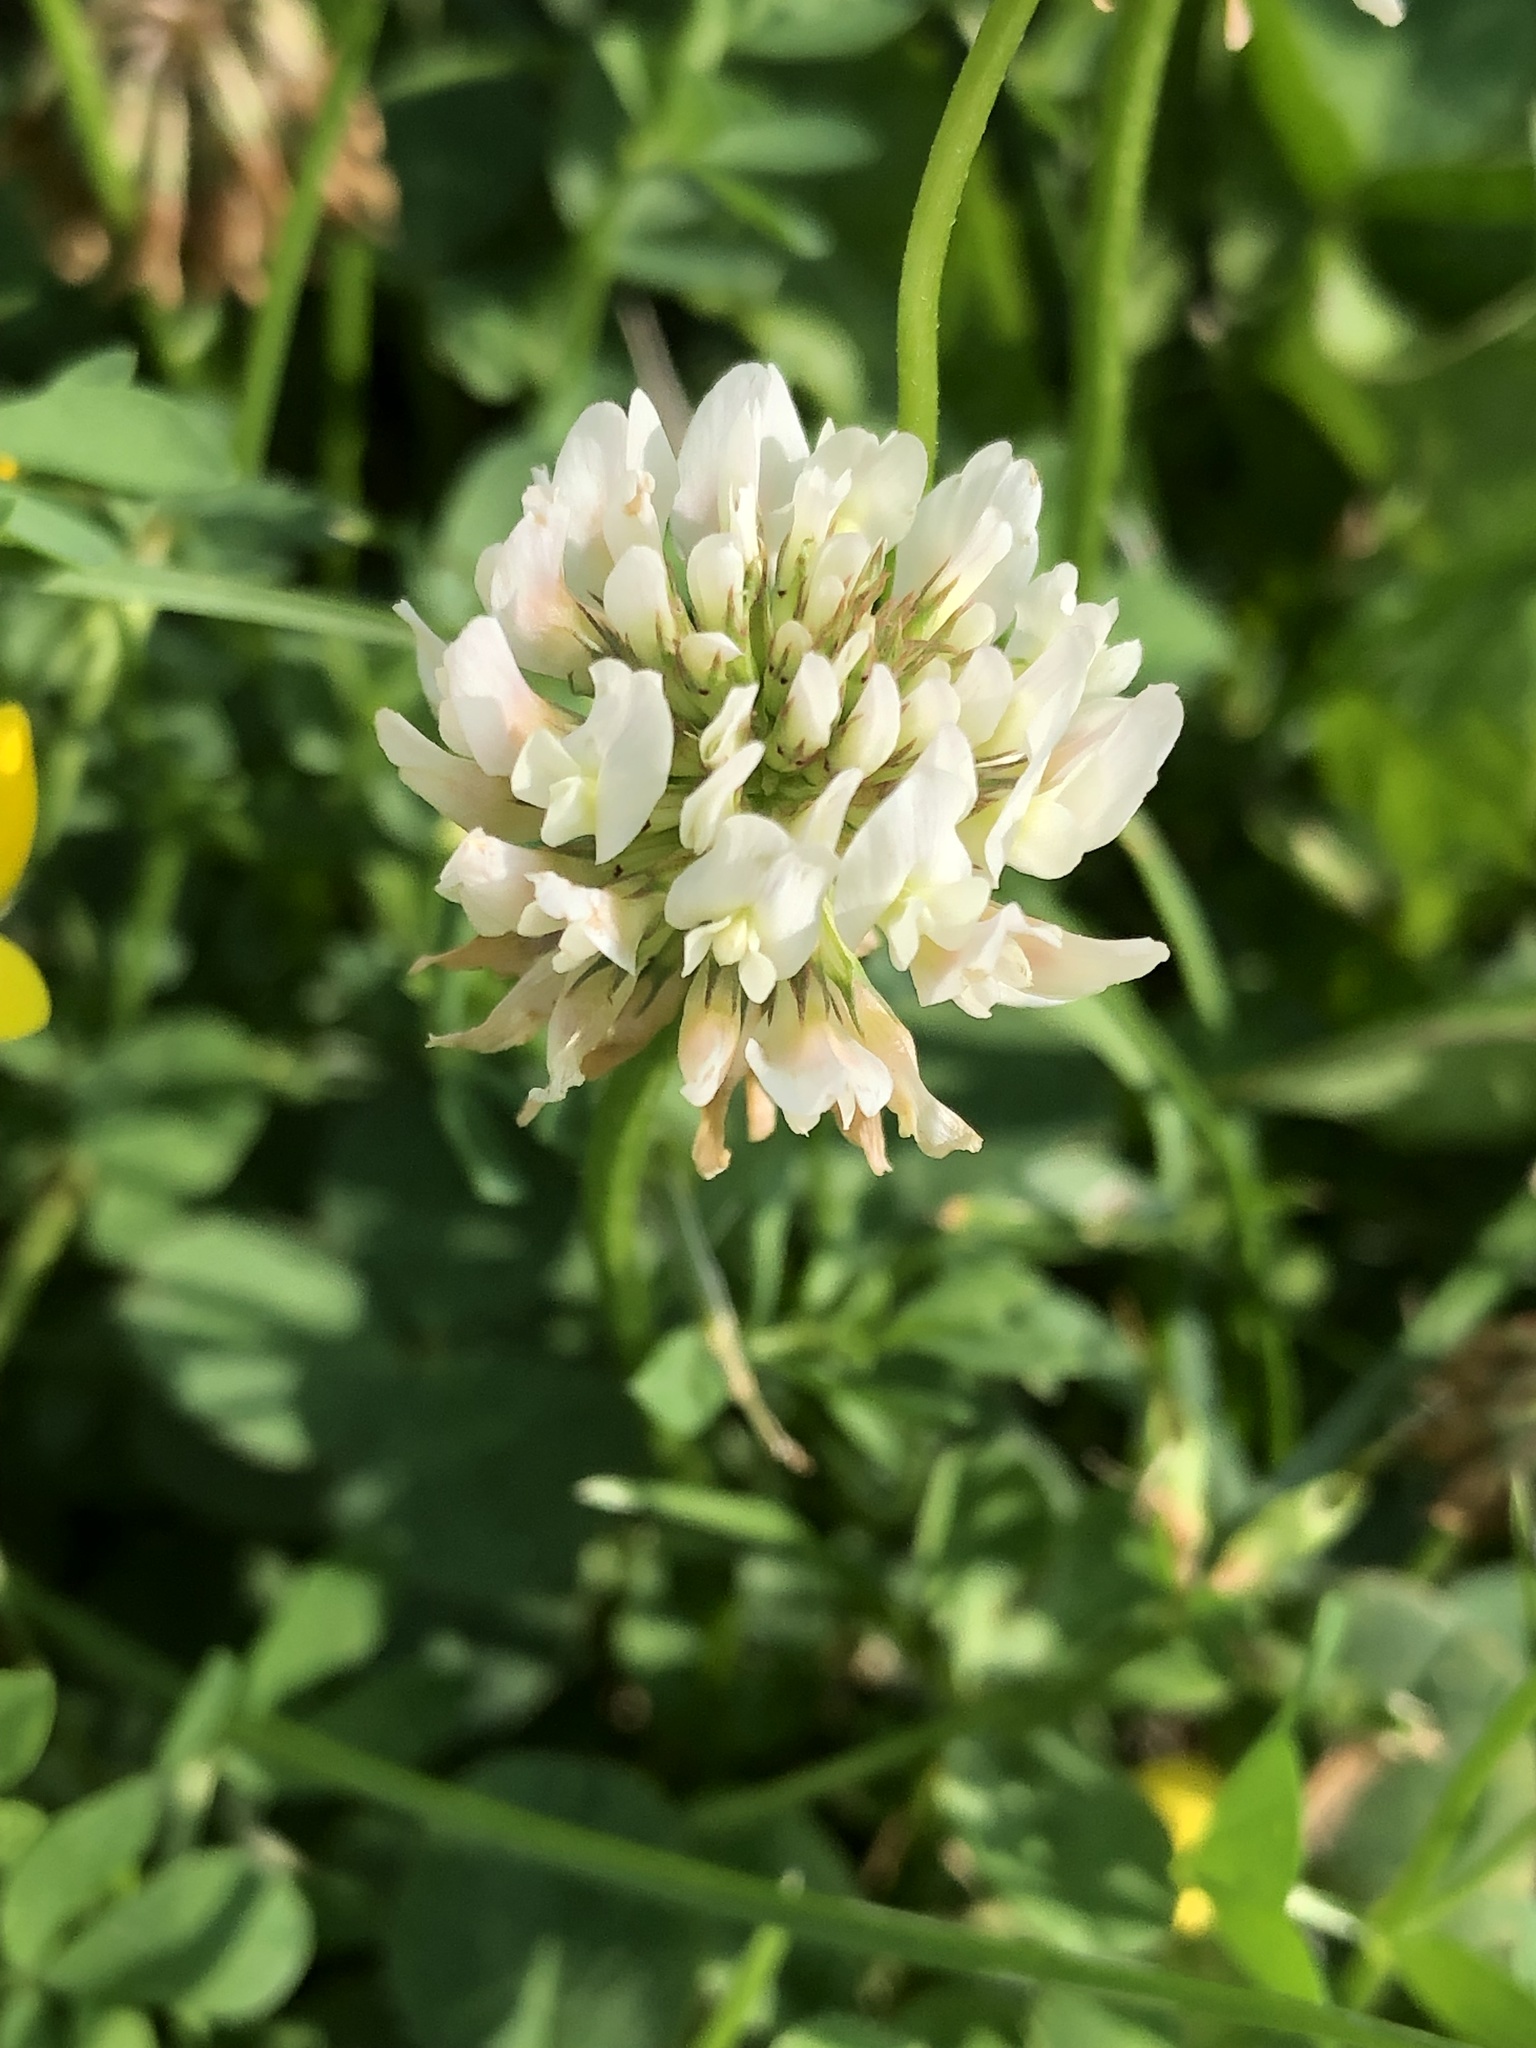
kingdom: Plantae
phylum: Tracheophyta
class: Magnoliopsida
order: Fabales
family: Fabaceae
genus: Trifolium
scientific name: Trifolium repens
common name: White clover
